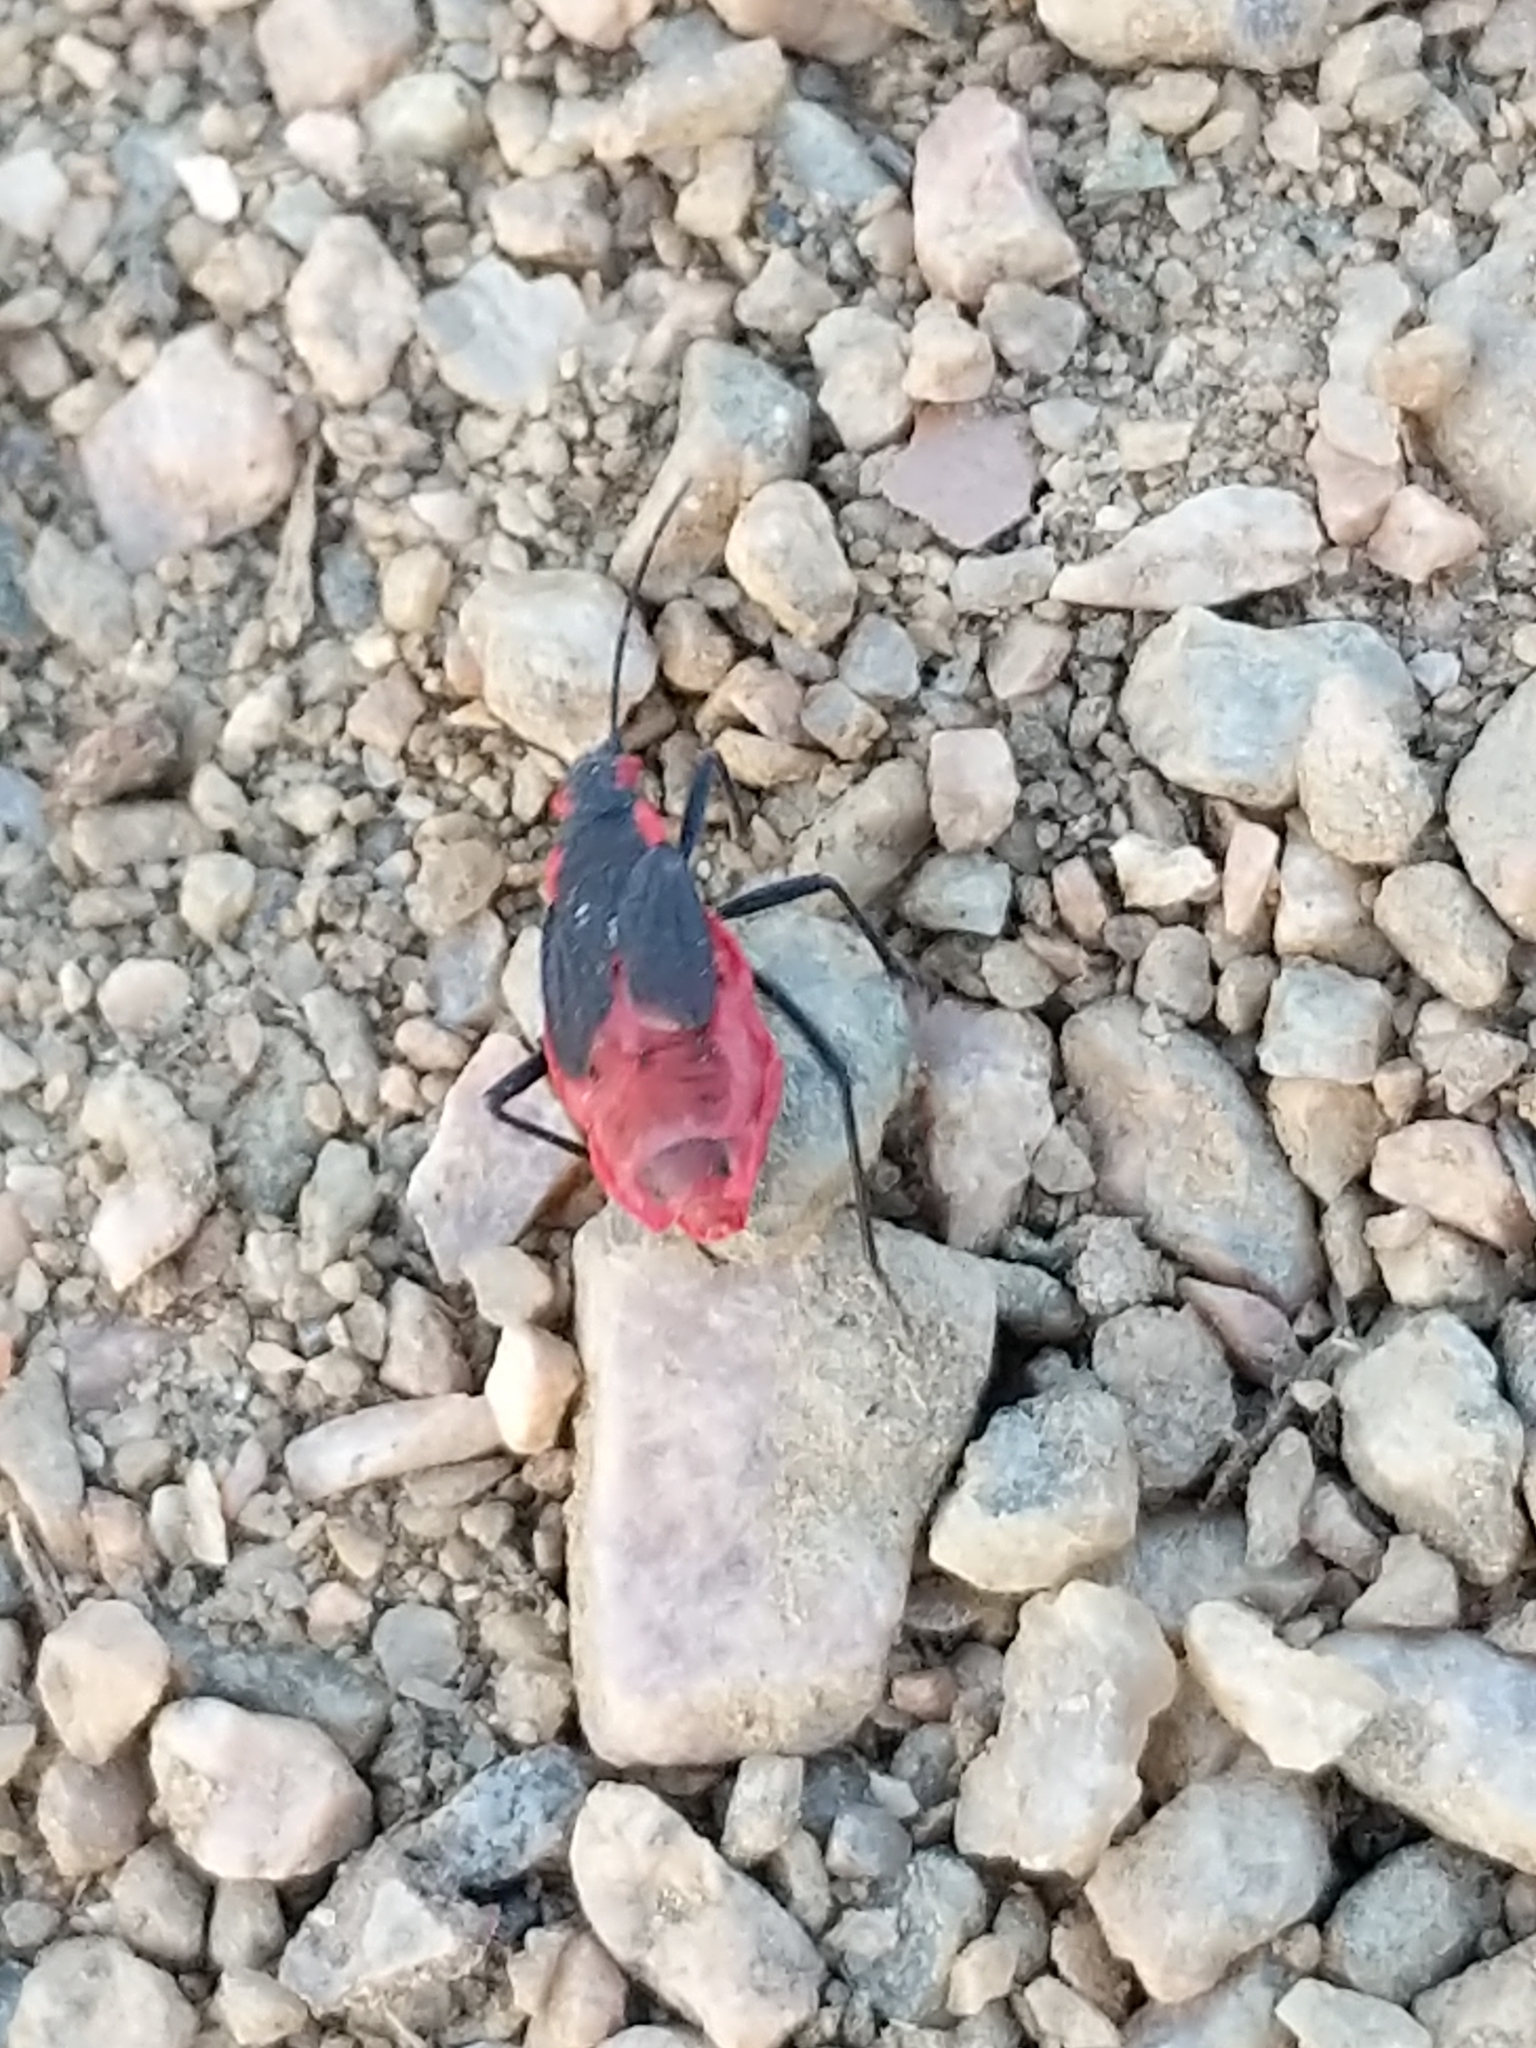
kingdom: Animalia
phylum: Arthropoda
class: Insecta
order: Hemiptera
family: Rhopalidae
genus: Jadera
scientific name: Jadera haematoloma
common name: Red-shouldered bug
